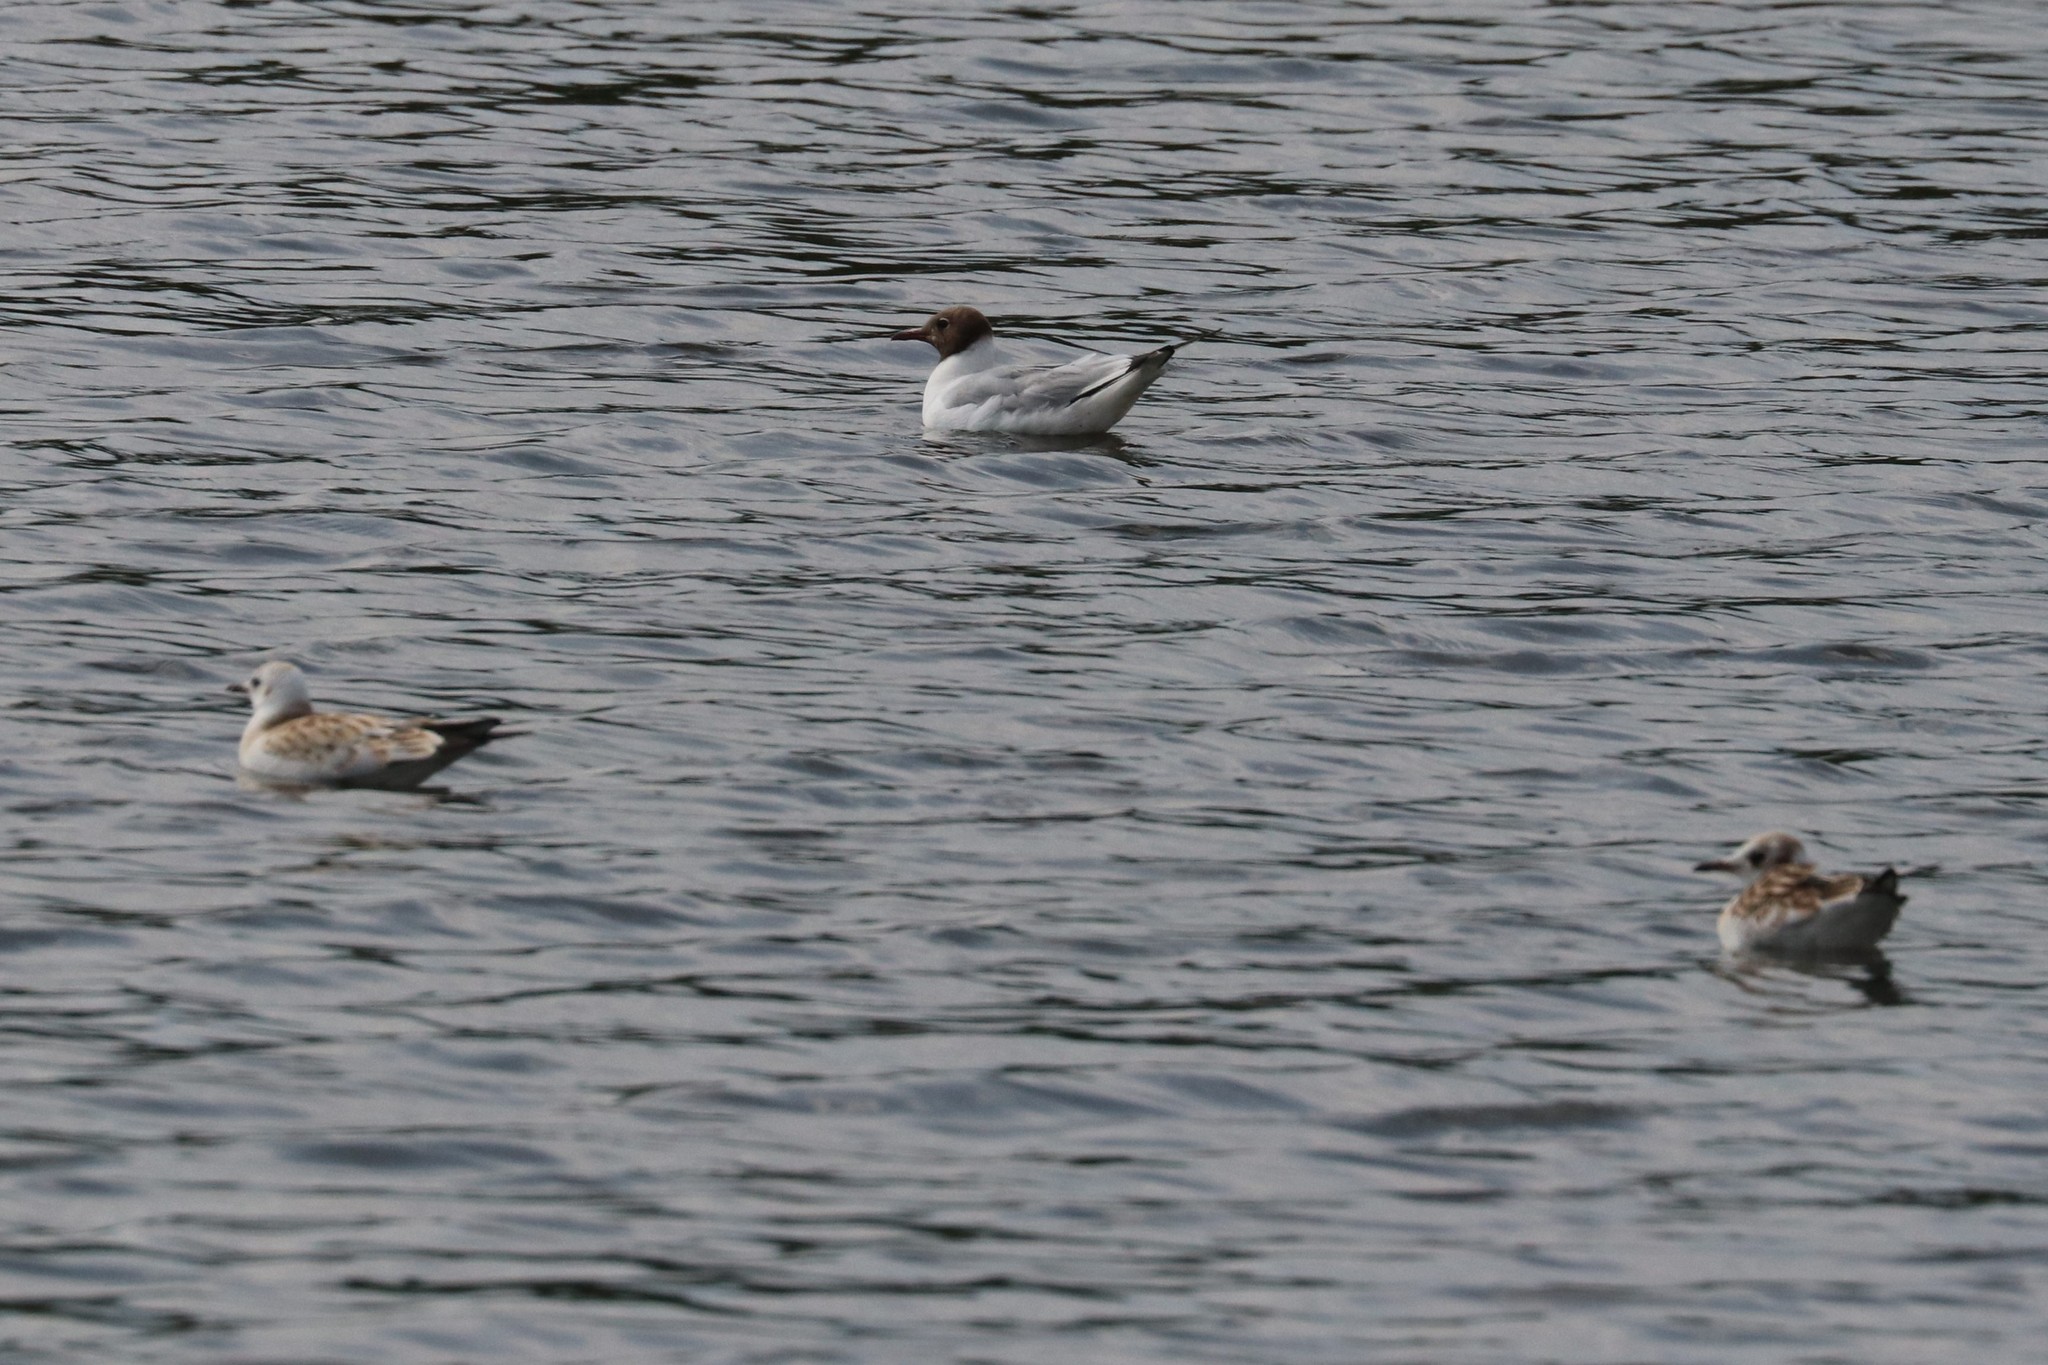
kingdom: Animalia
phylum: Chordata
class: Aves
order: Charadriiformes
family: Laridae
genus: Chroicocephalus
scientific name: Chroicocephalus ridibundus
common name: Black-headed gull
